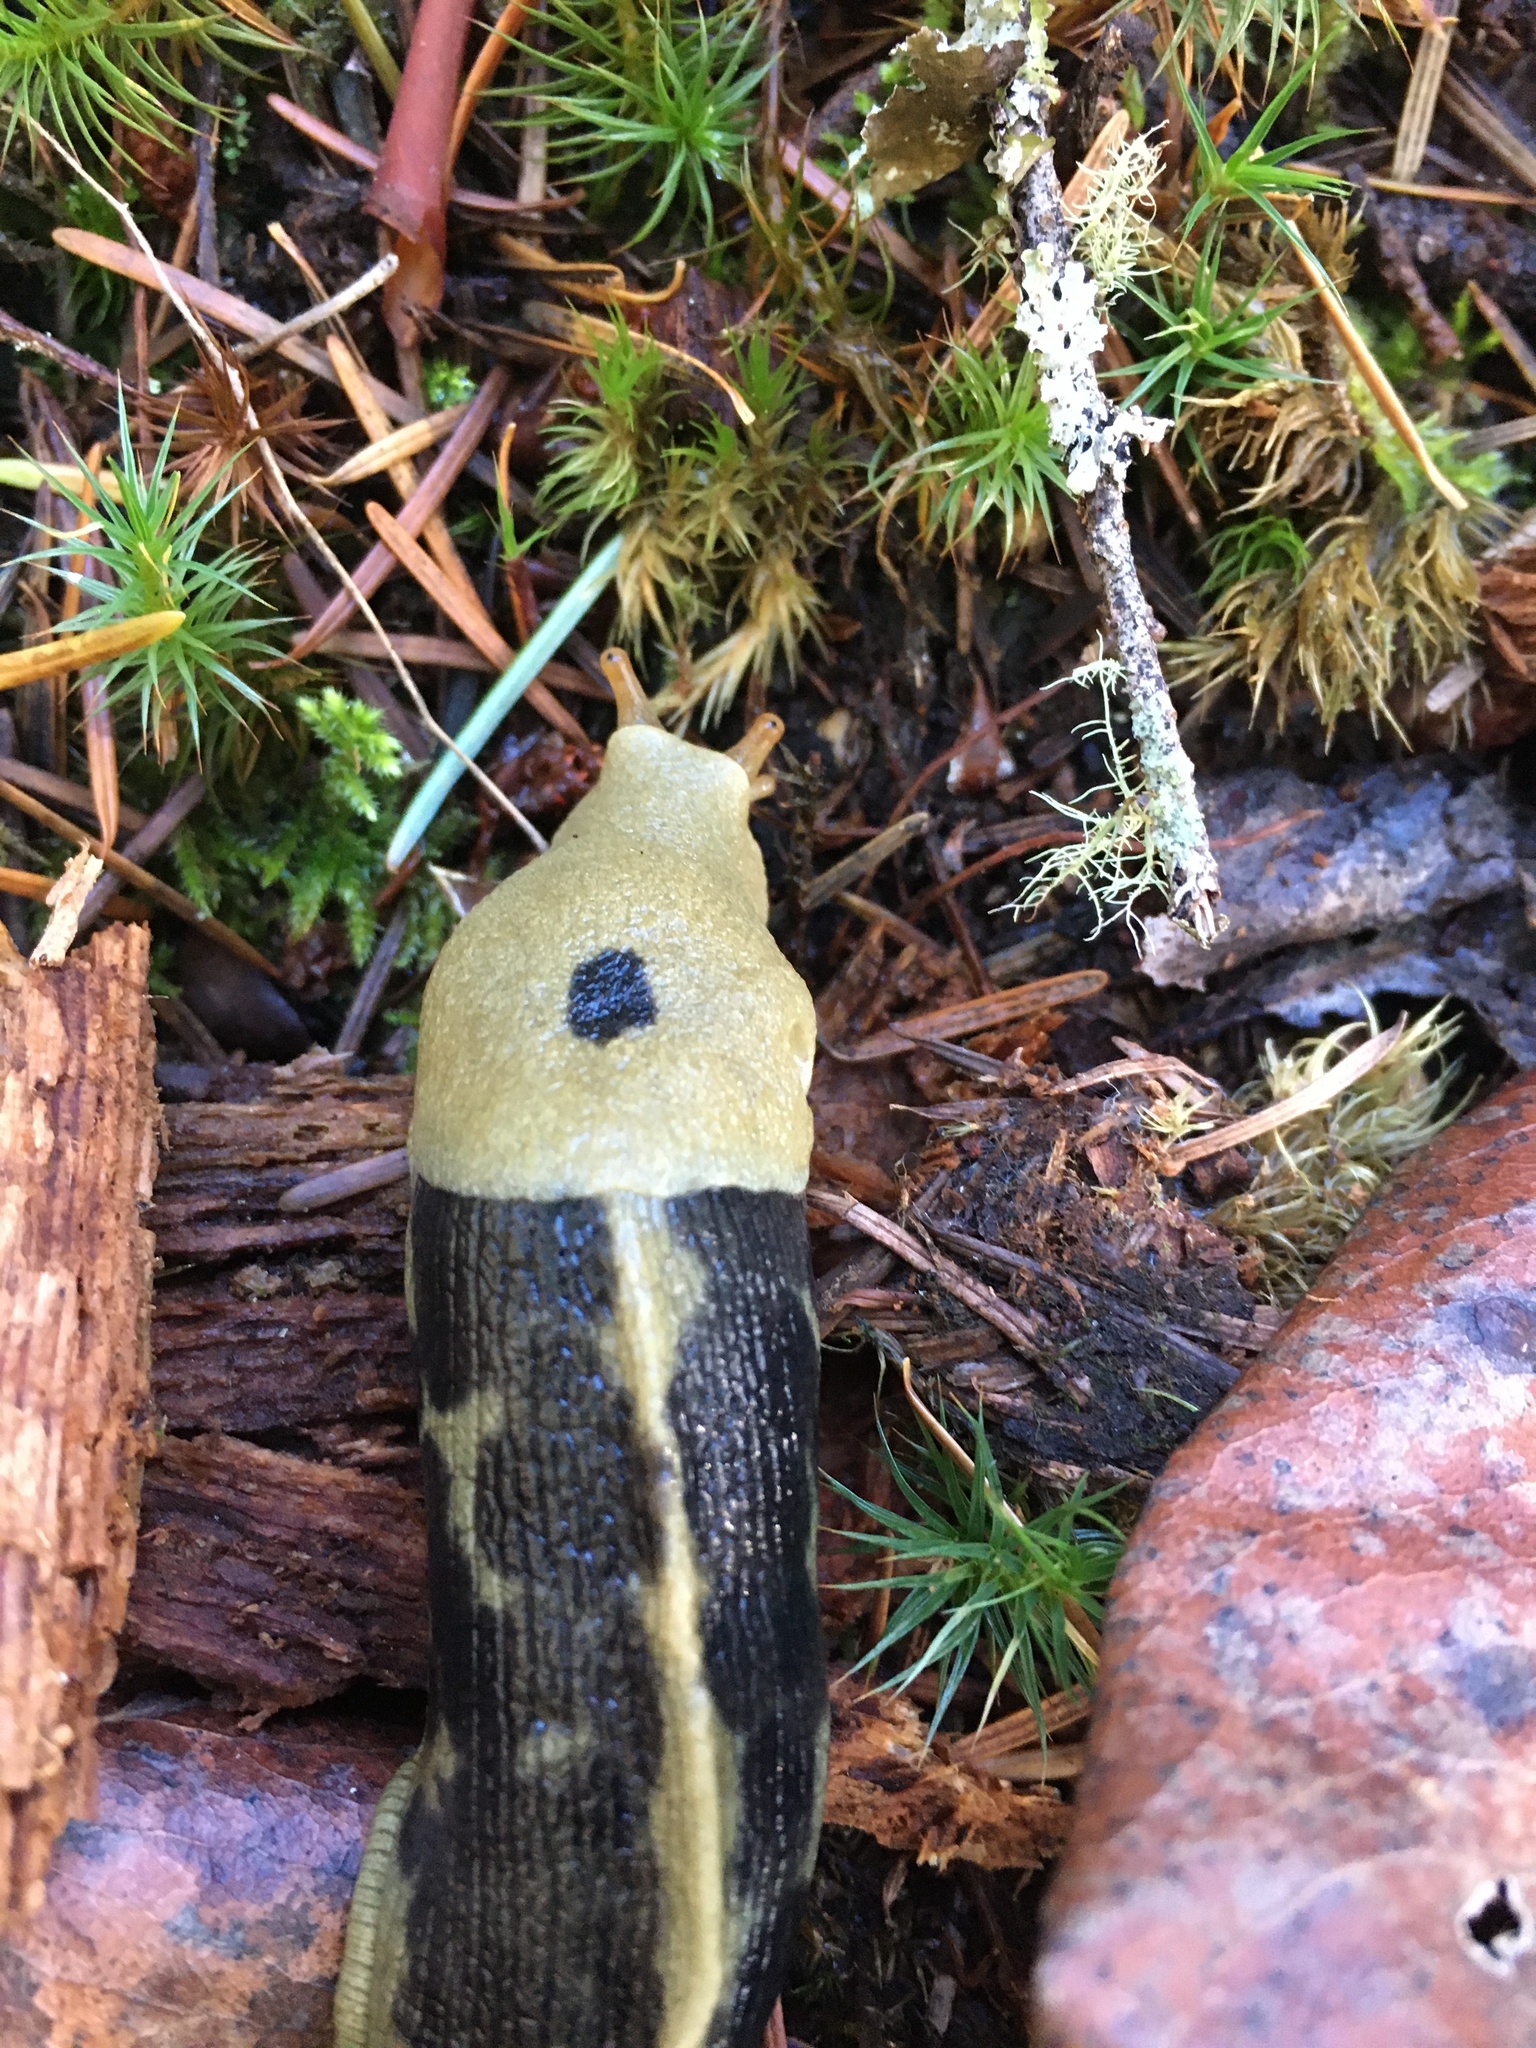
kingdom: Animalia
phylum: Mollusca
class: Gastropoda
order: Stylommatophora
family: Ariolimacidae
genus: Ariolimax
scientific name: Ariolimax columbianus
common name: Pacific banana slug
